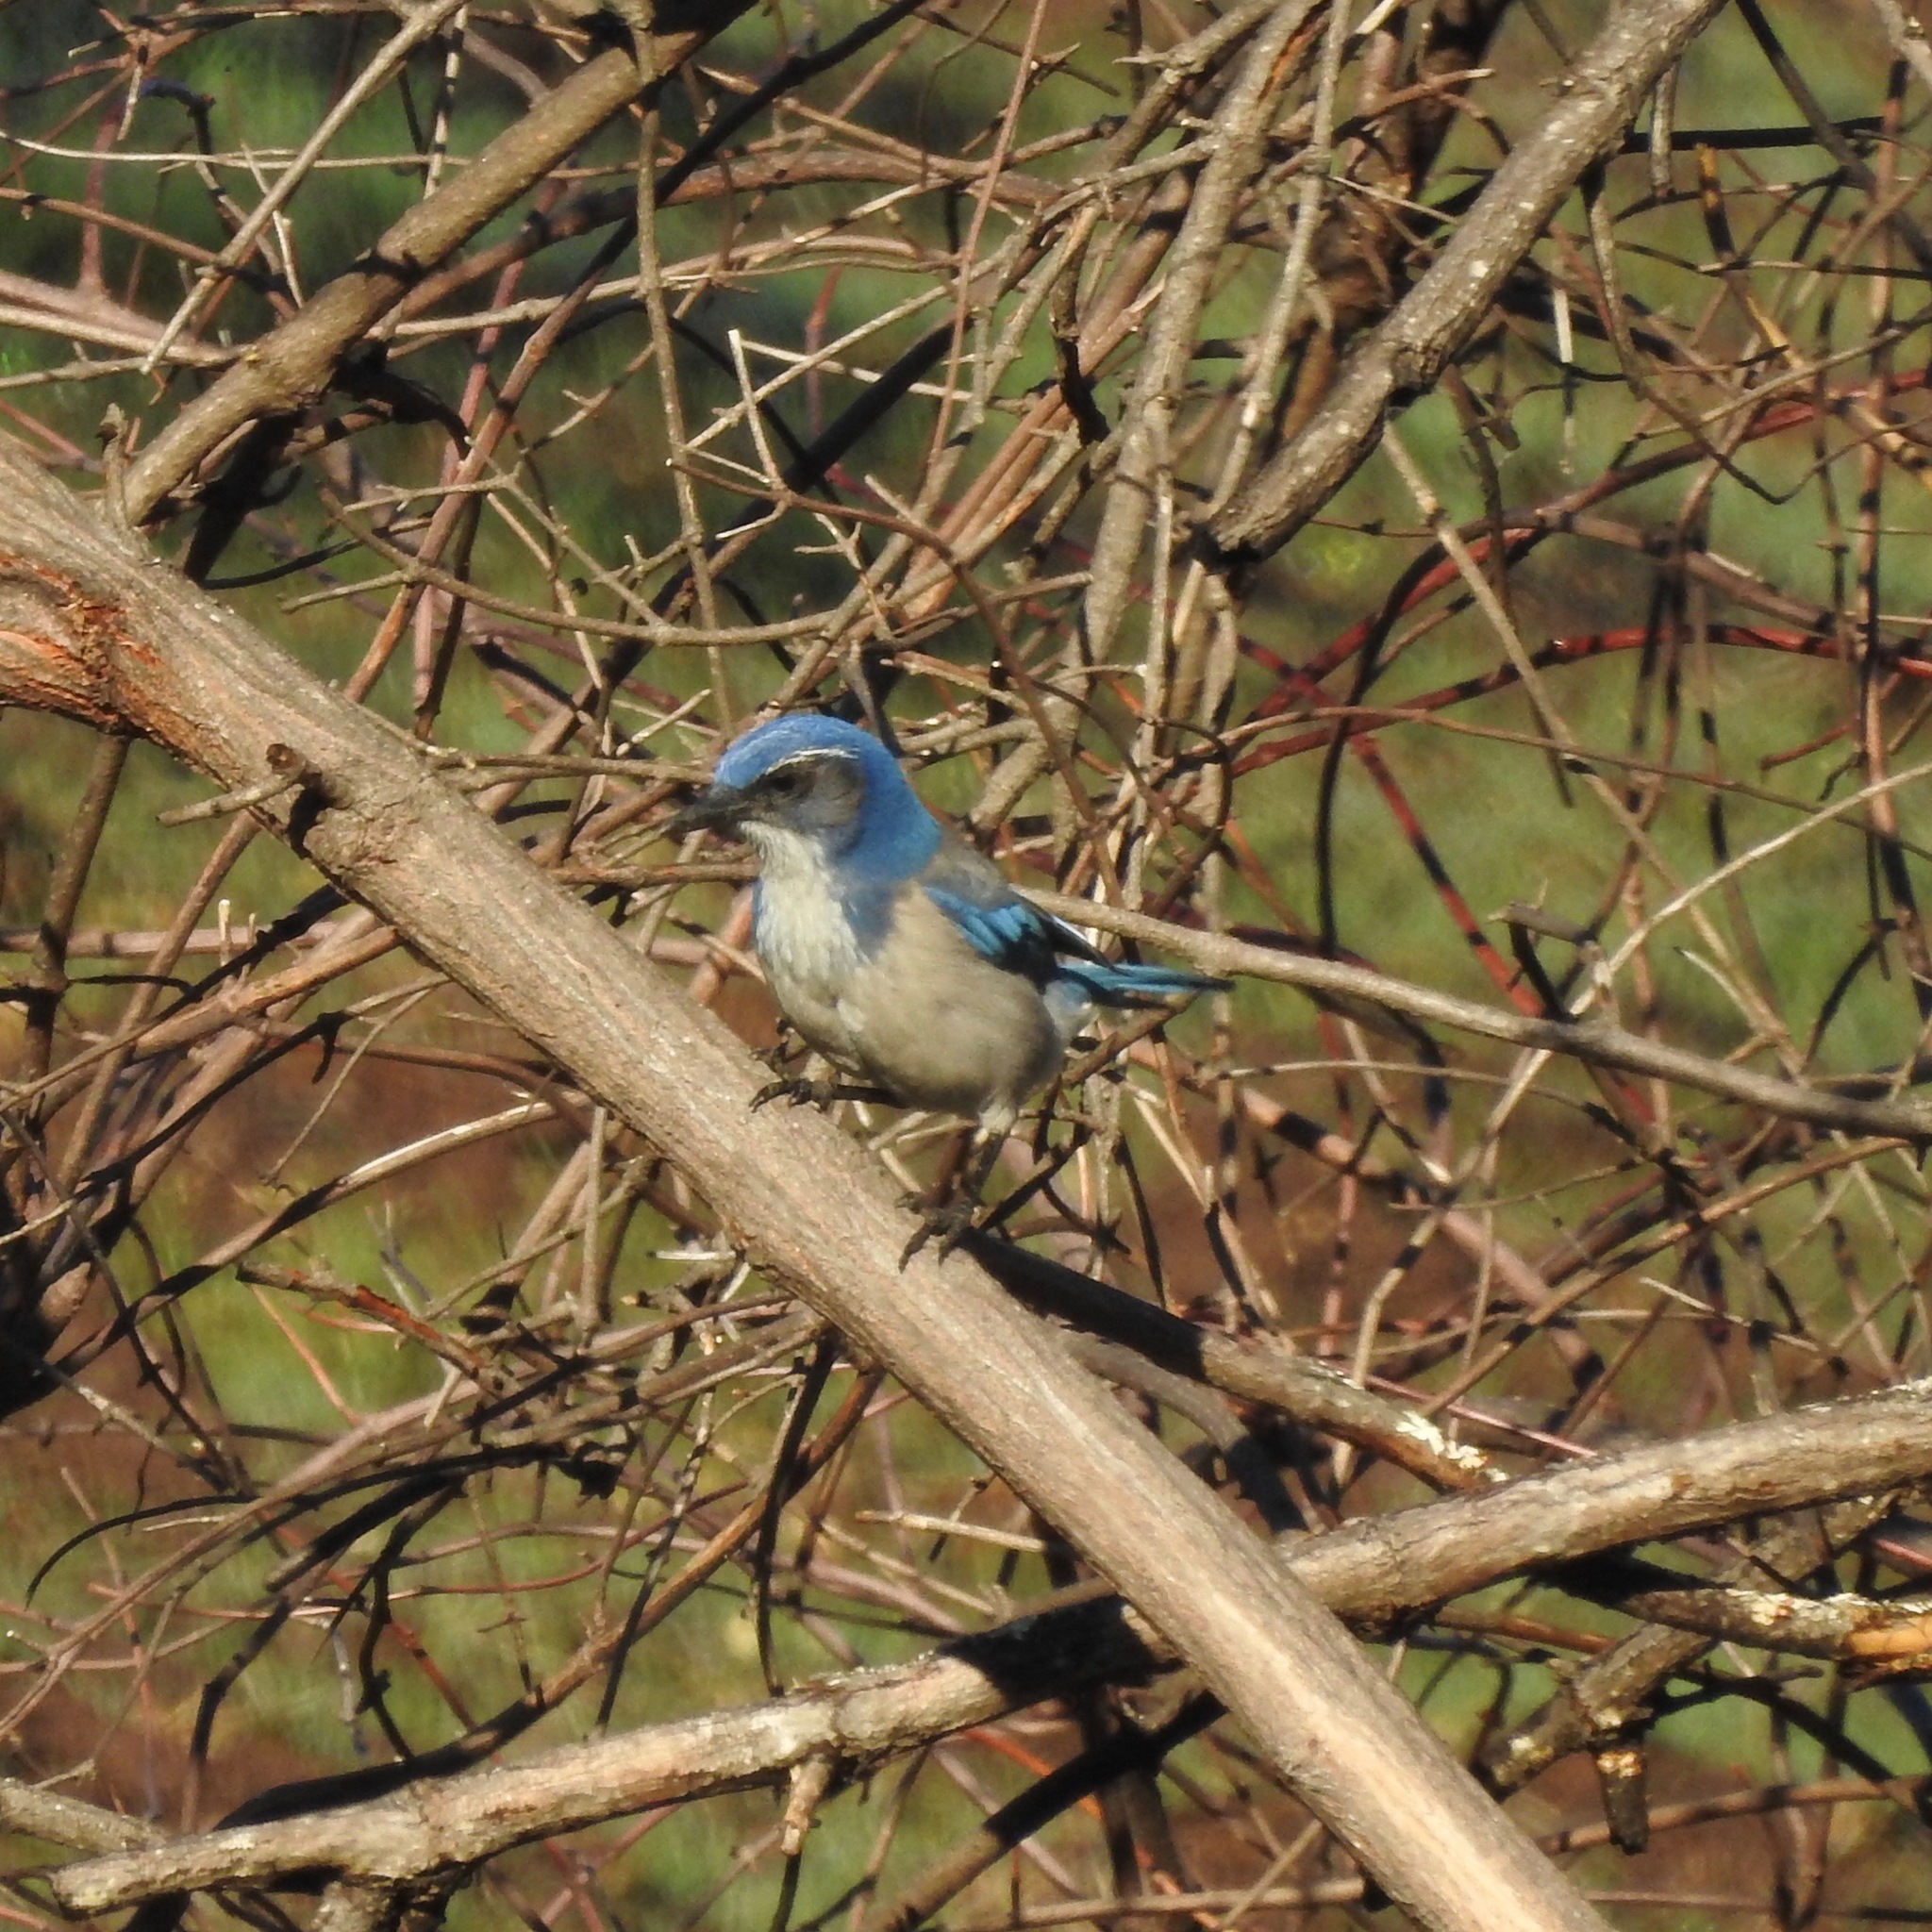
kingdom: Animalia
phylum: Chordata
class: Aves
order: Passeriformes
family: Corvidae
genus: Aphelocoma
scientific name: Aphelocoma californica
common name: California scrub-jay
